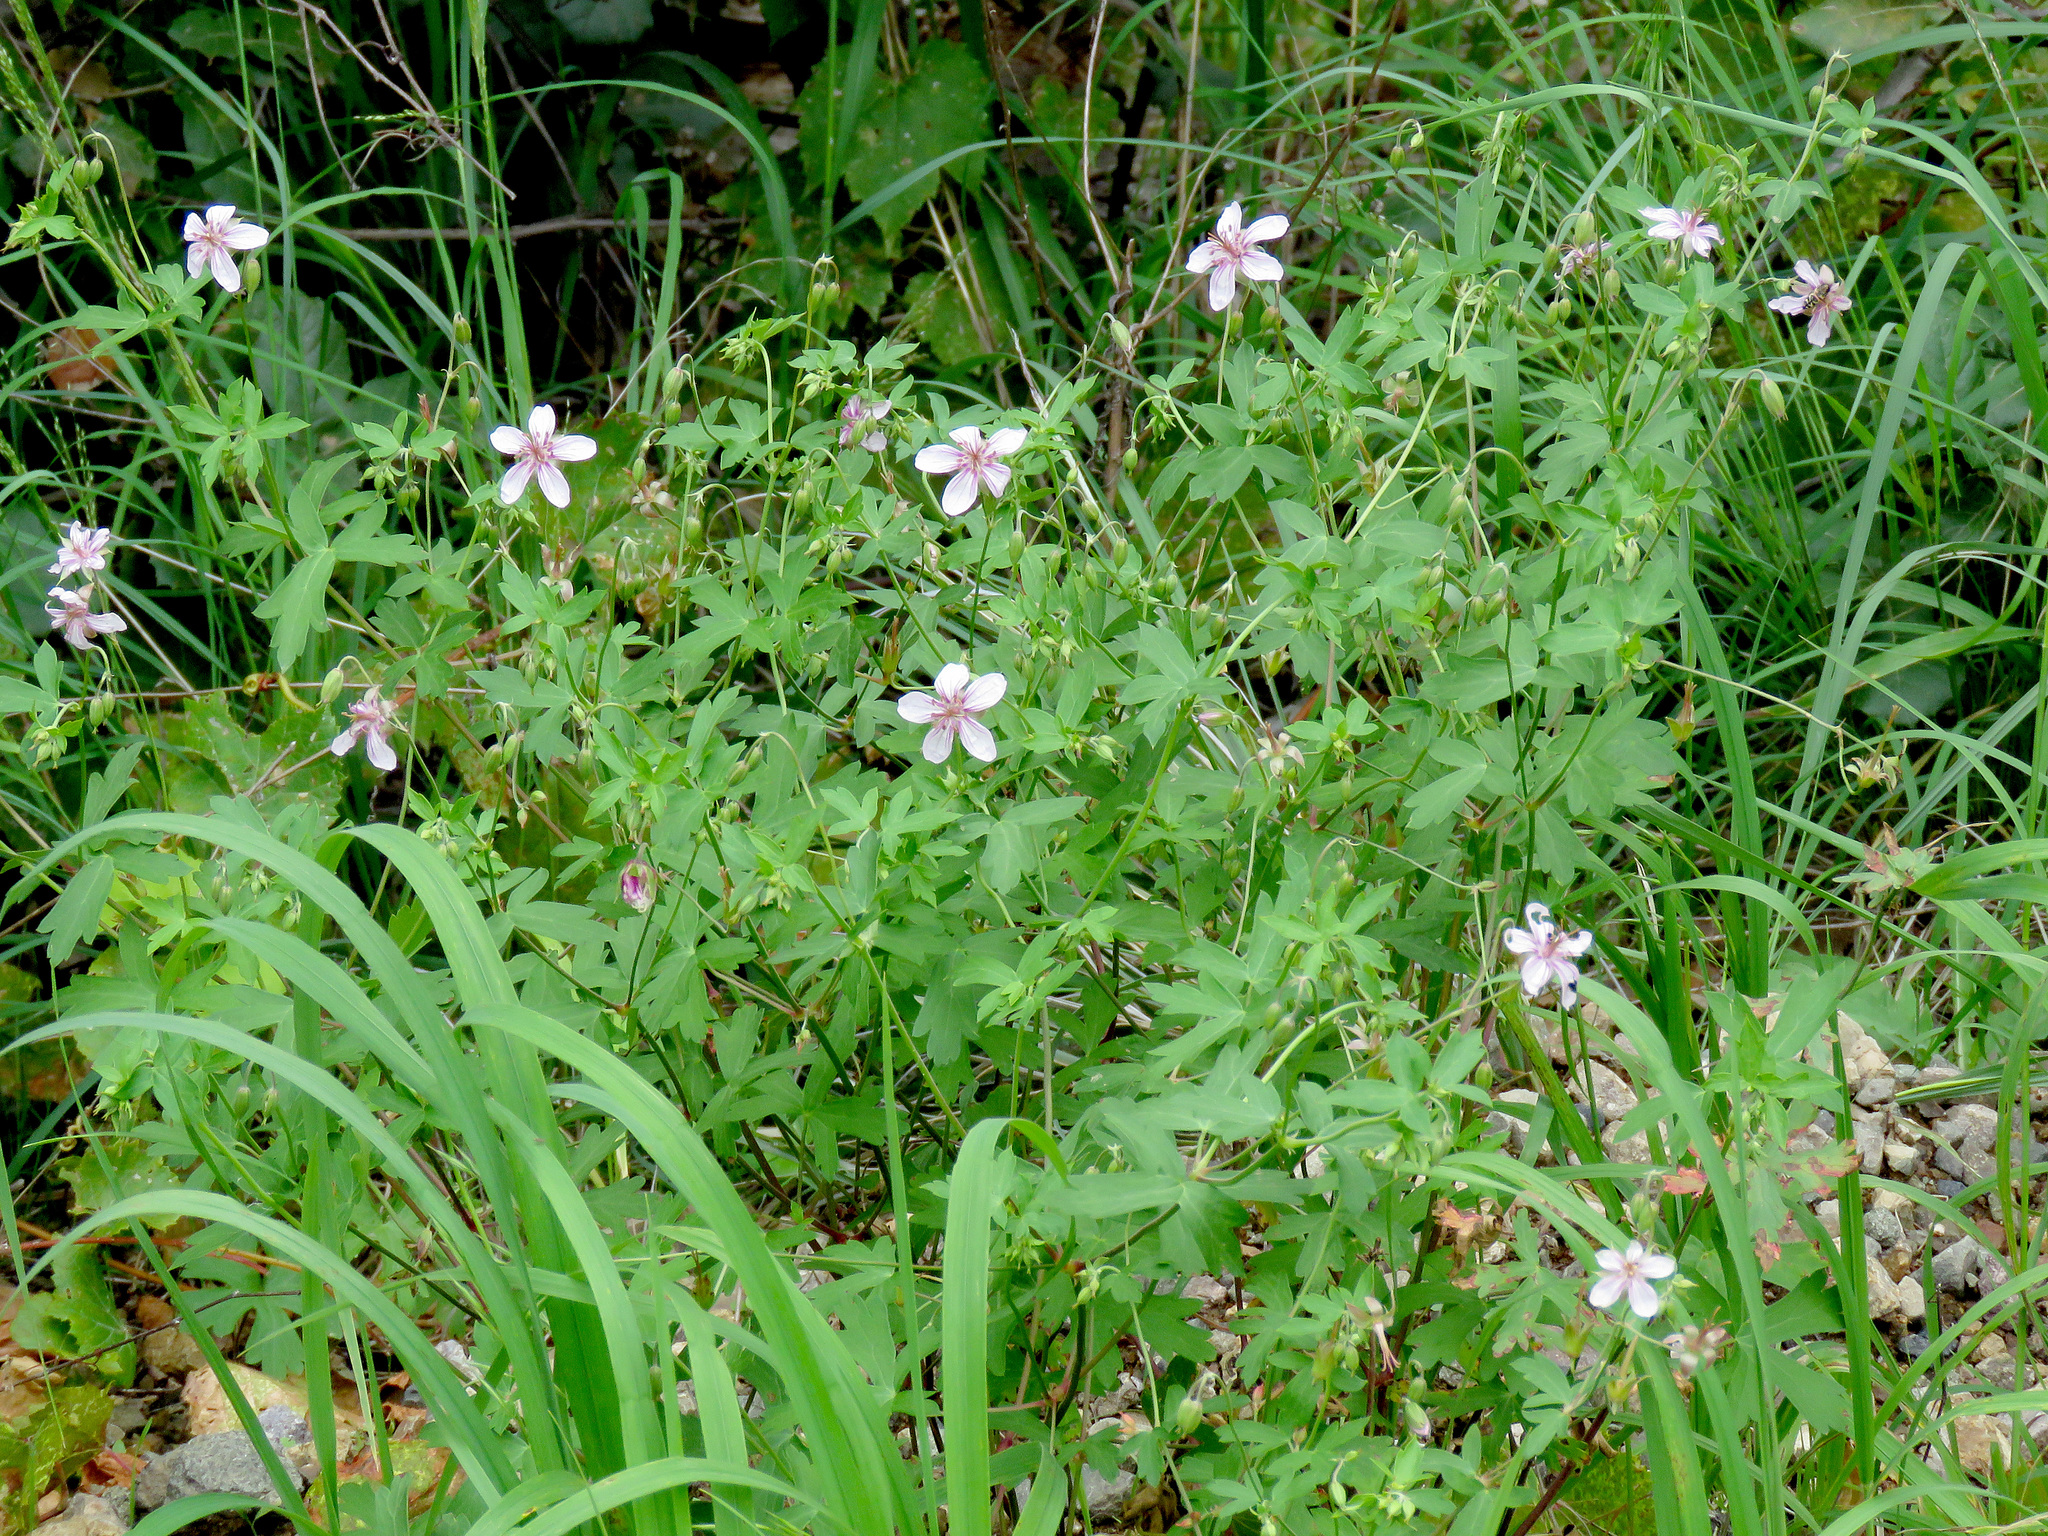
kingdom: Plantae
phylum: Tracheophyta
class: Magnoliopsida
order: Geraniales
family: Geraniaceae
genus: Geranium
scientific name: Geranium caespitosum
